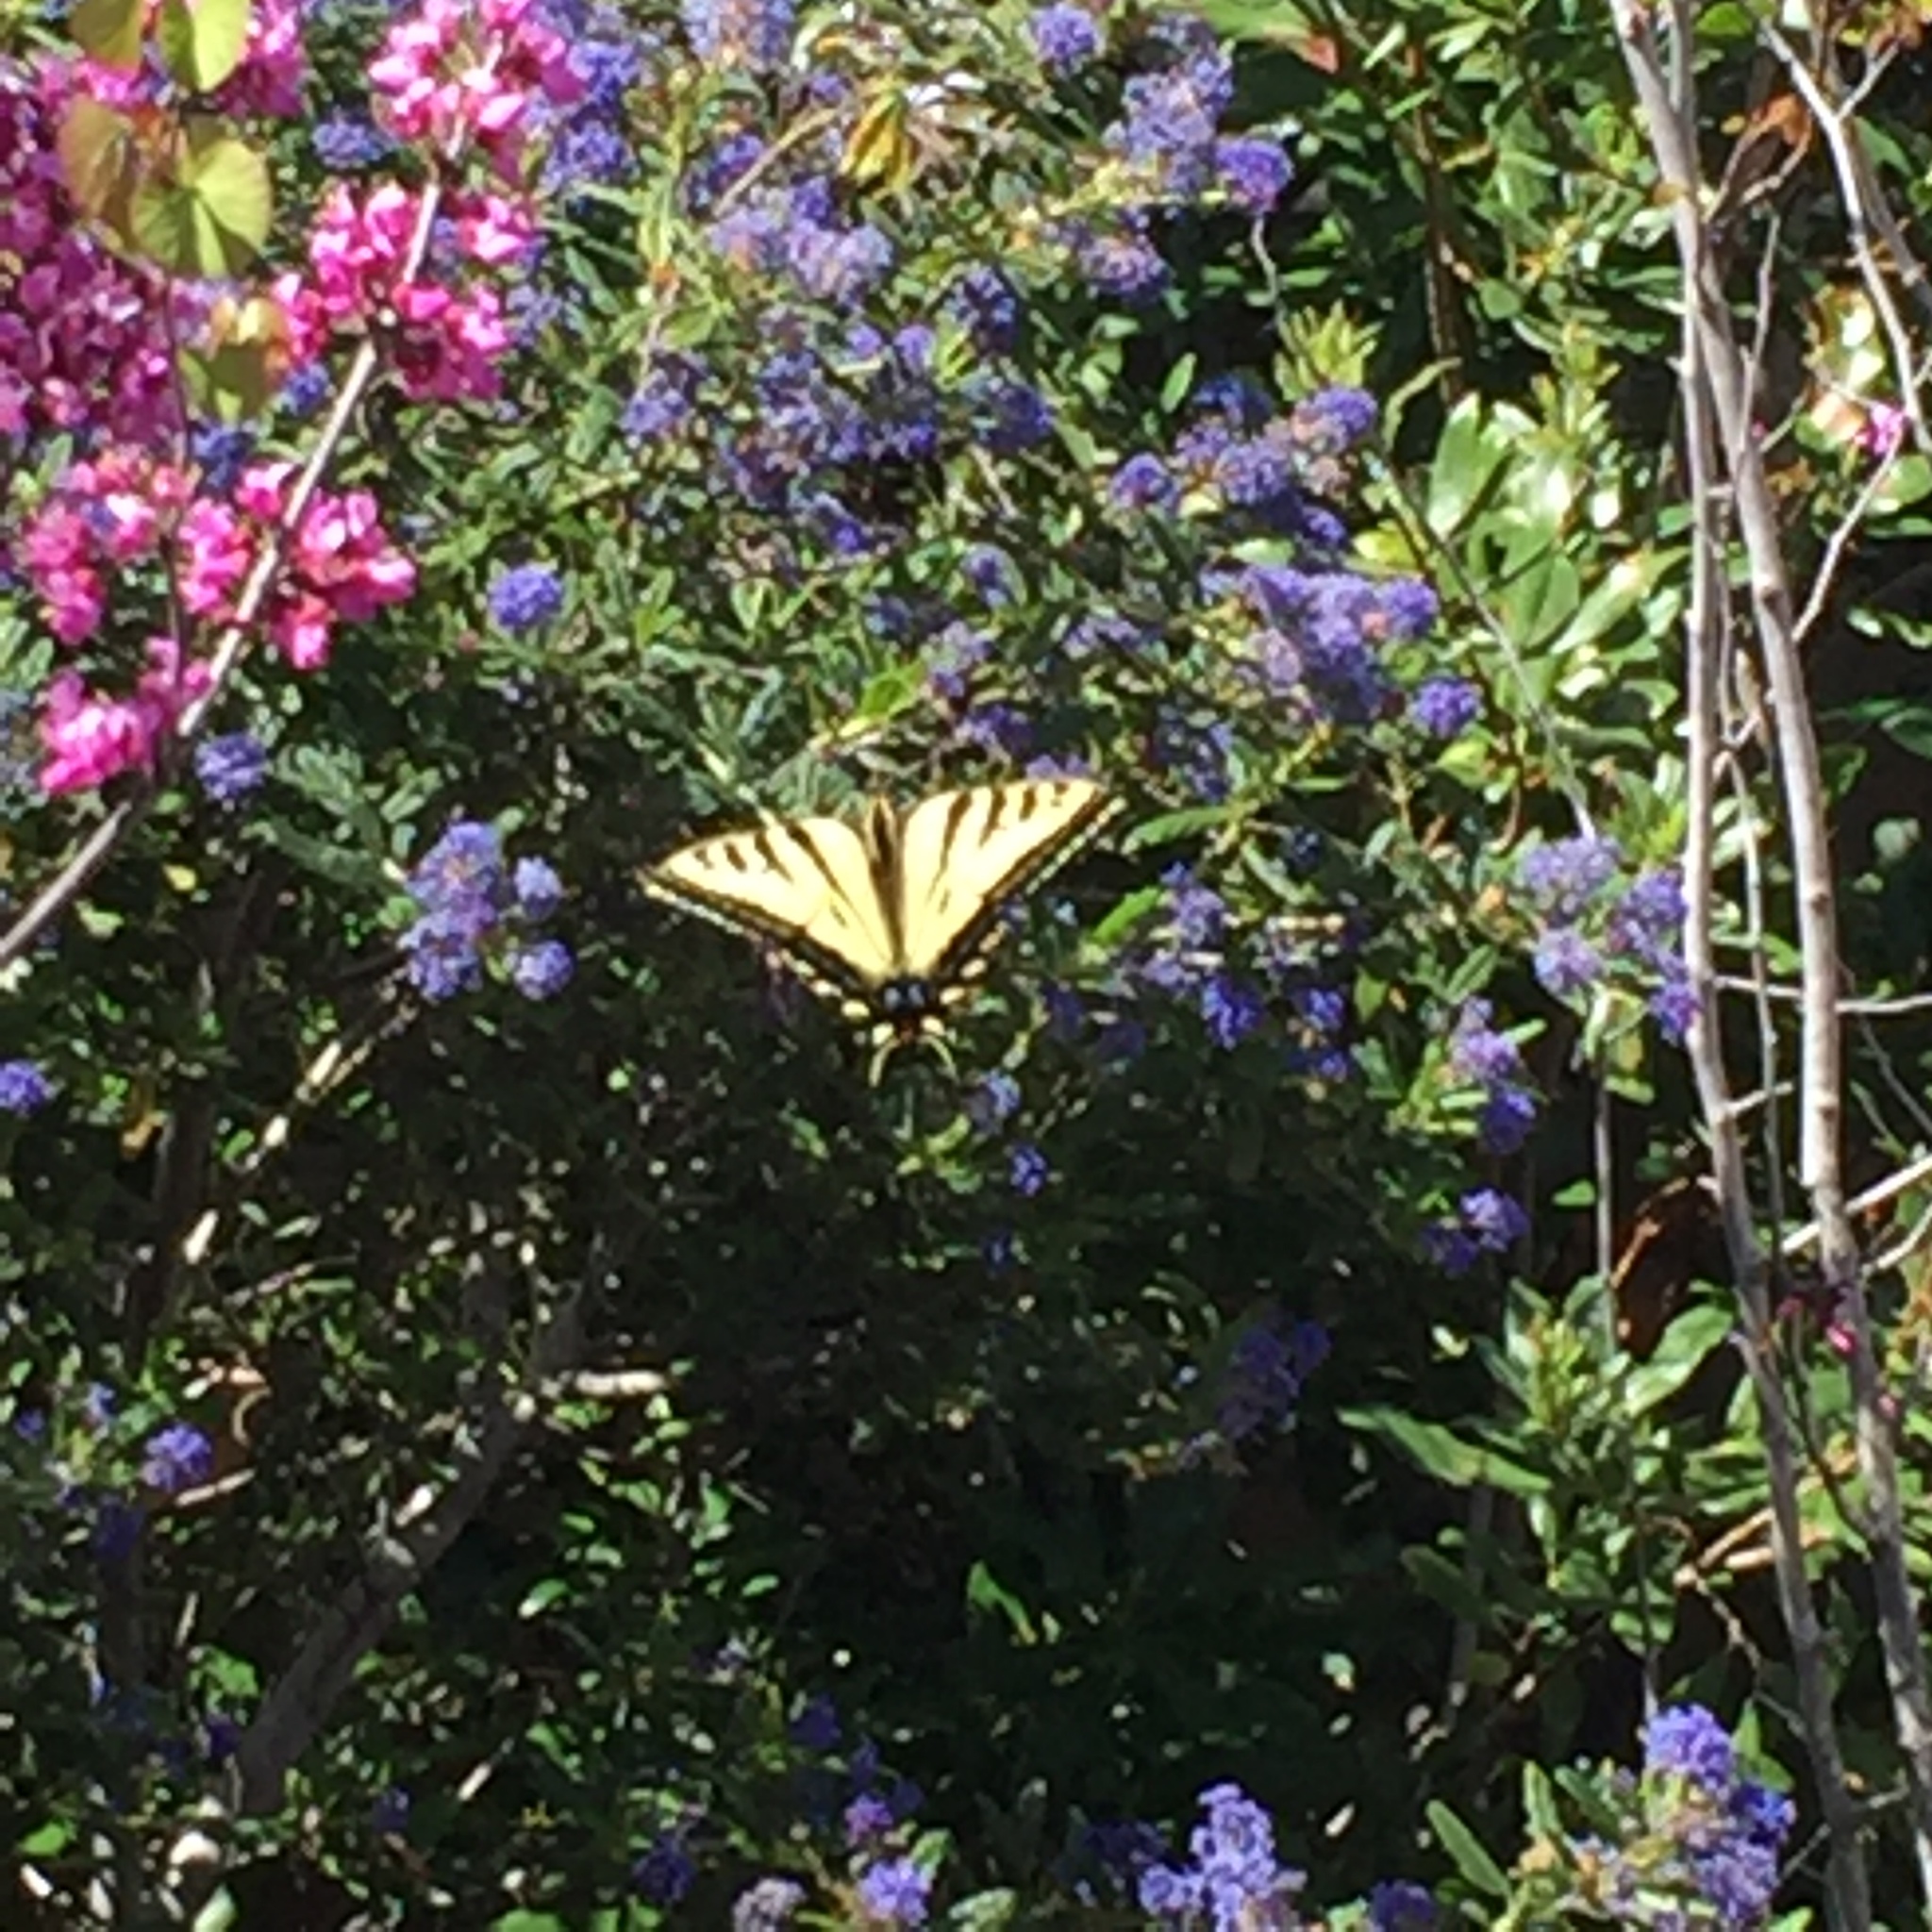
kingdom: Animalia
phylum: Arthropoda
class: Insecta
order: Lepidoptera
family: Papilionidae
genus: Papilio
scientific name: Papilio rutulus
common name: Western tiger swallowtail
